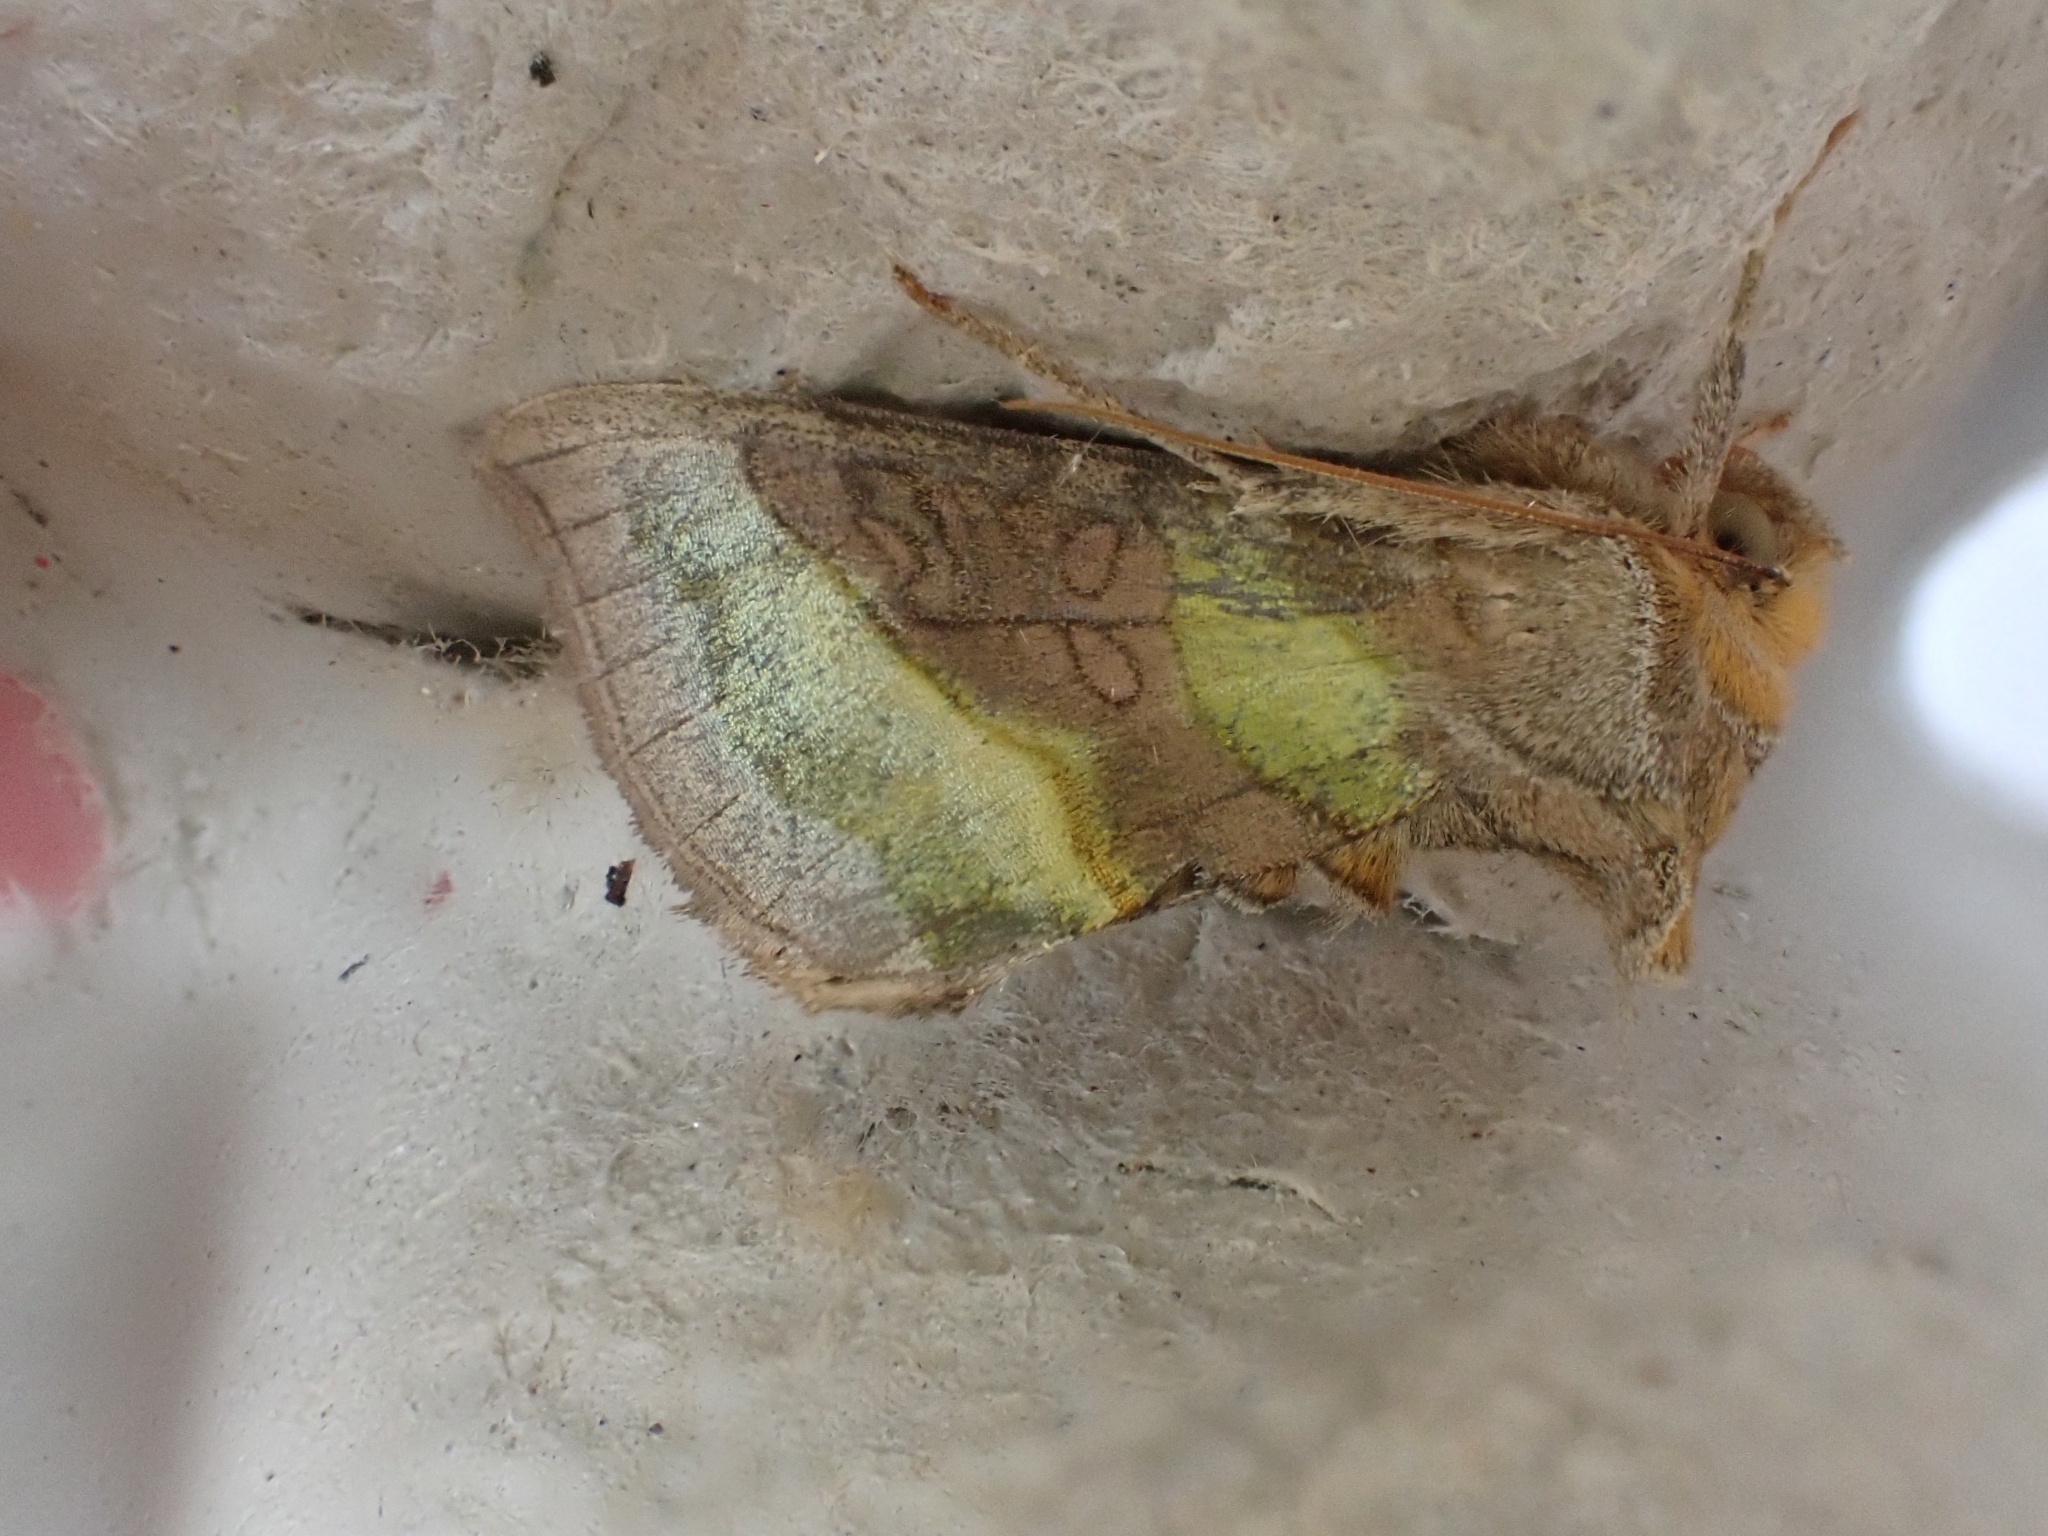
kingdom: Animalia
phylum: Arthropoda
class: Insecta
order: Lepidoptera
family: Noctuidae
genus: Diachrysia
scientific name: Diachrysia chrysitis
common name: Burnished brass
